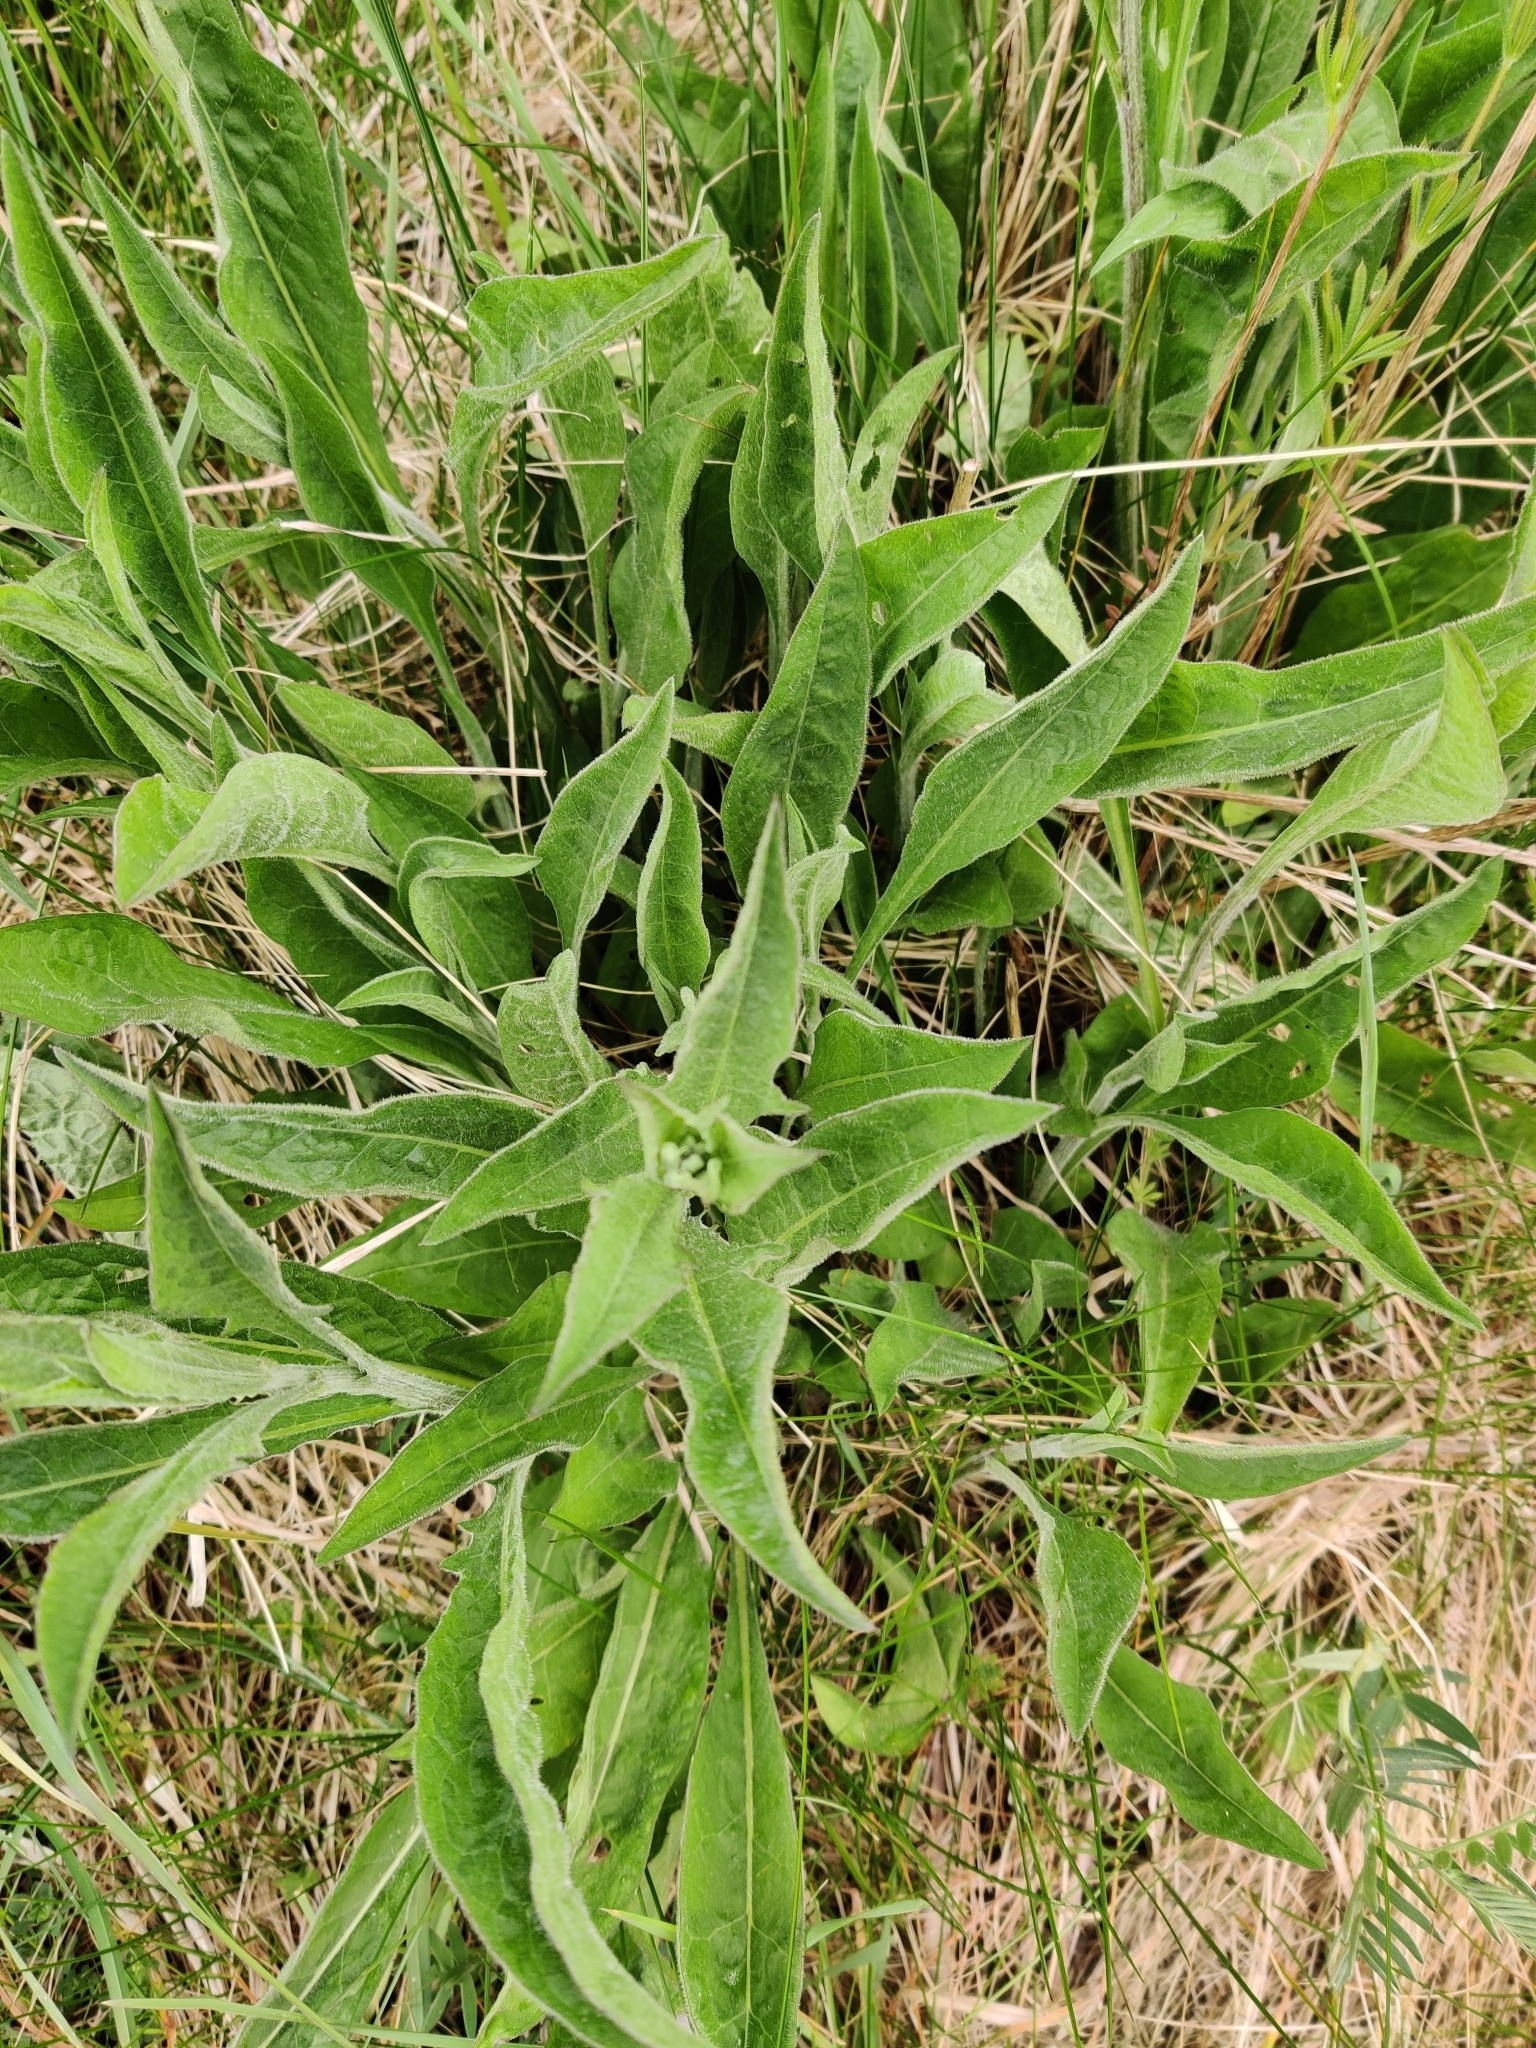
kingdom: Plantae
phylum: Tracheophyta
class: Magnoliopsida
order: Asterales
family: Asteraceae
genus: Centaurea
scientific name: Centaurea nigra
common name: Lesser knapweed
